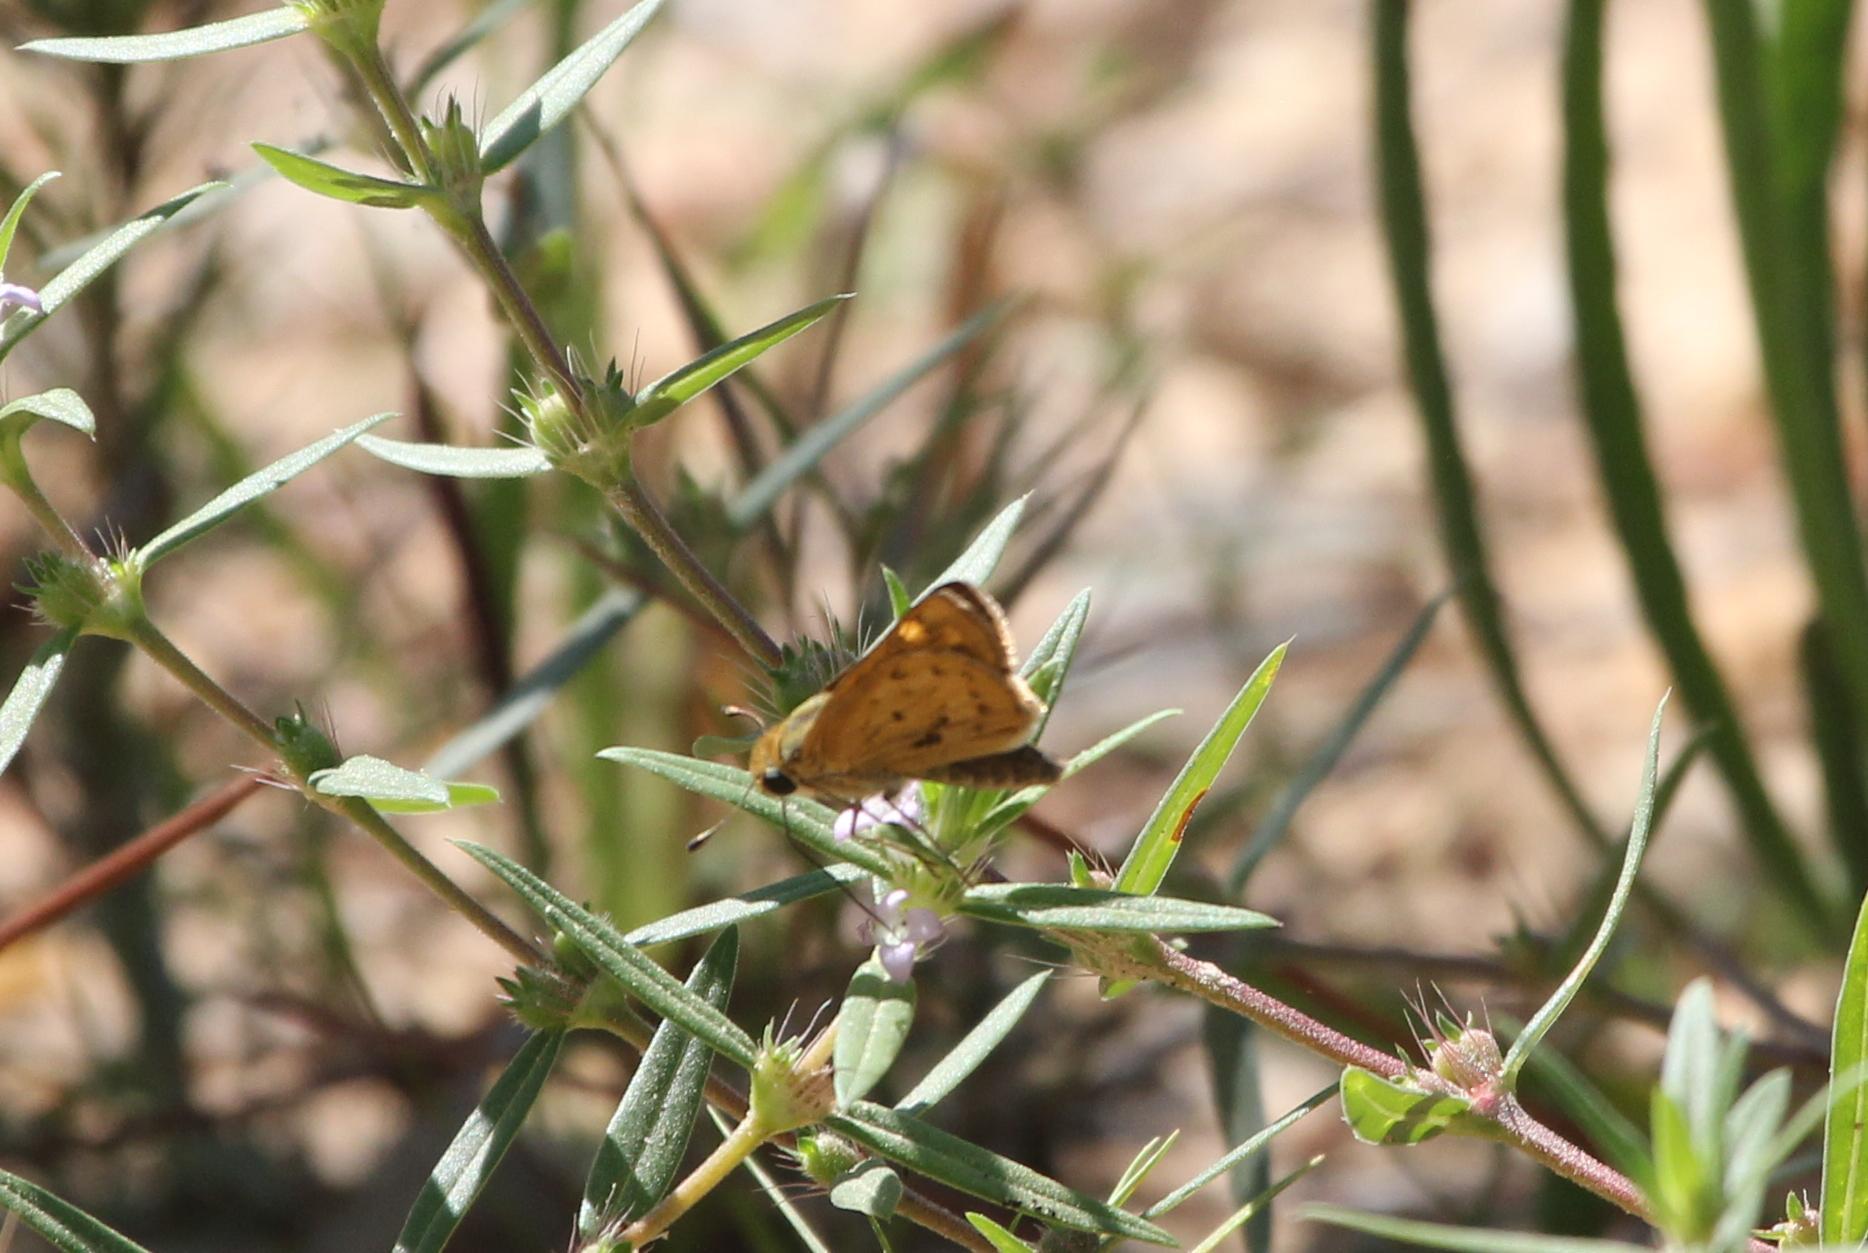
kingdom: Animalia
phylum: Arthropoda
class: Insecta
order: Lepidoptera
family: Hesperiidae
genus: Hylephila
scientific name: Hylephila phyleus
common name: Fiery skipper
